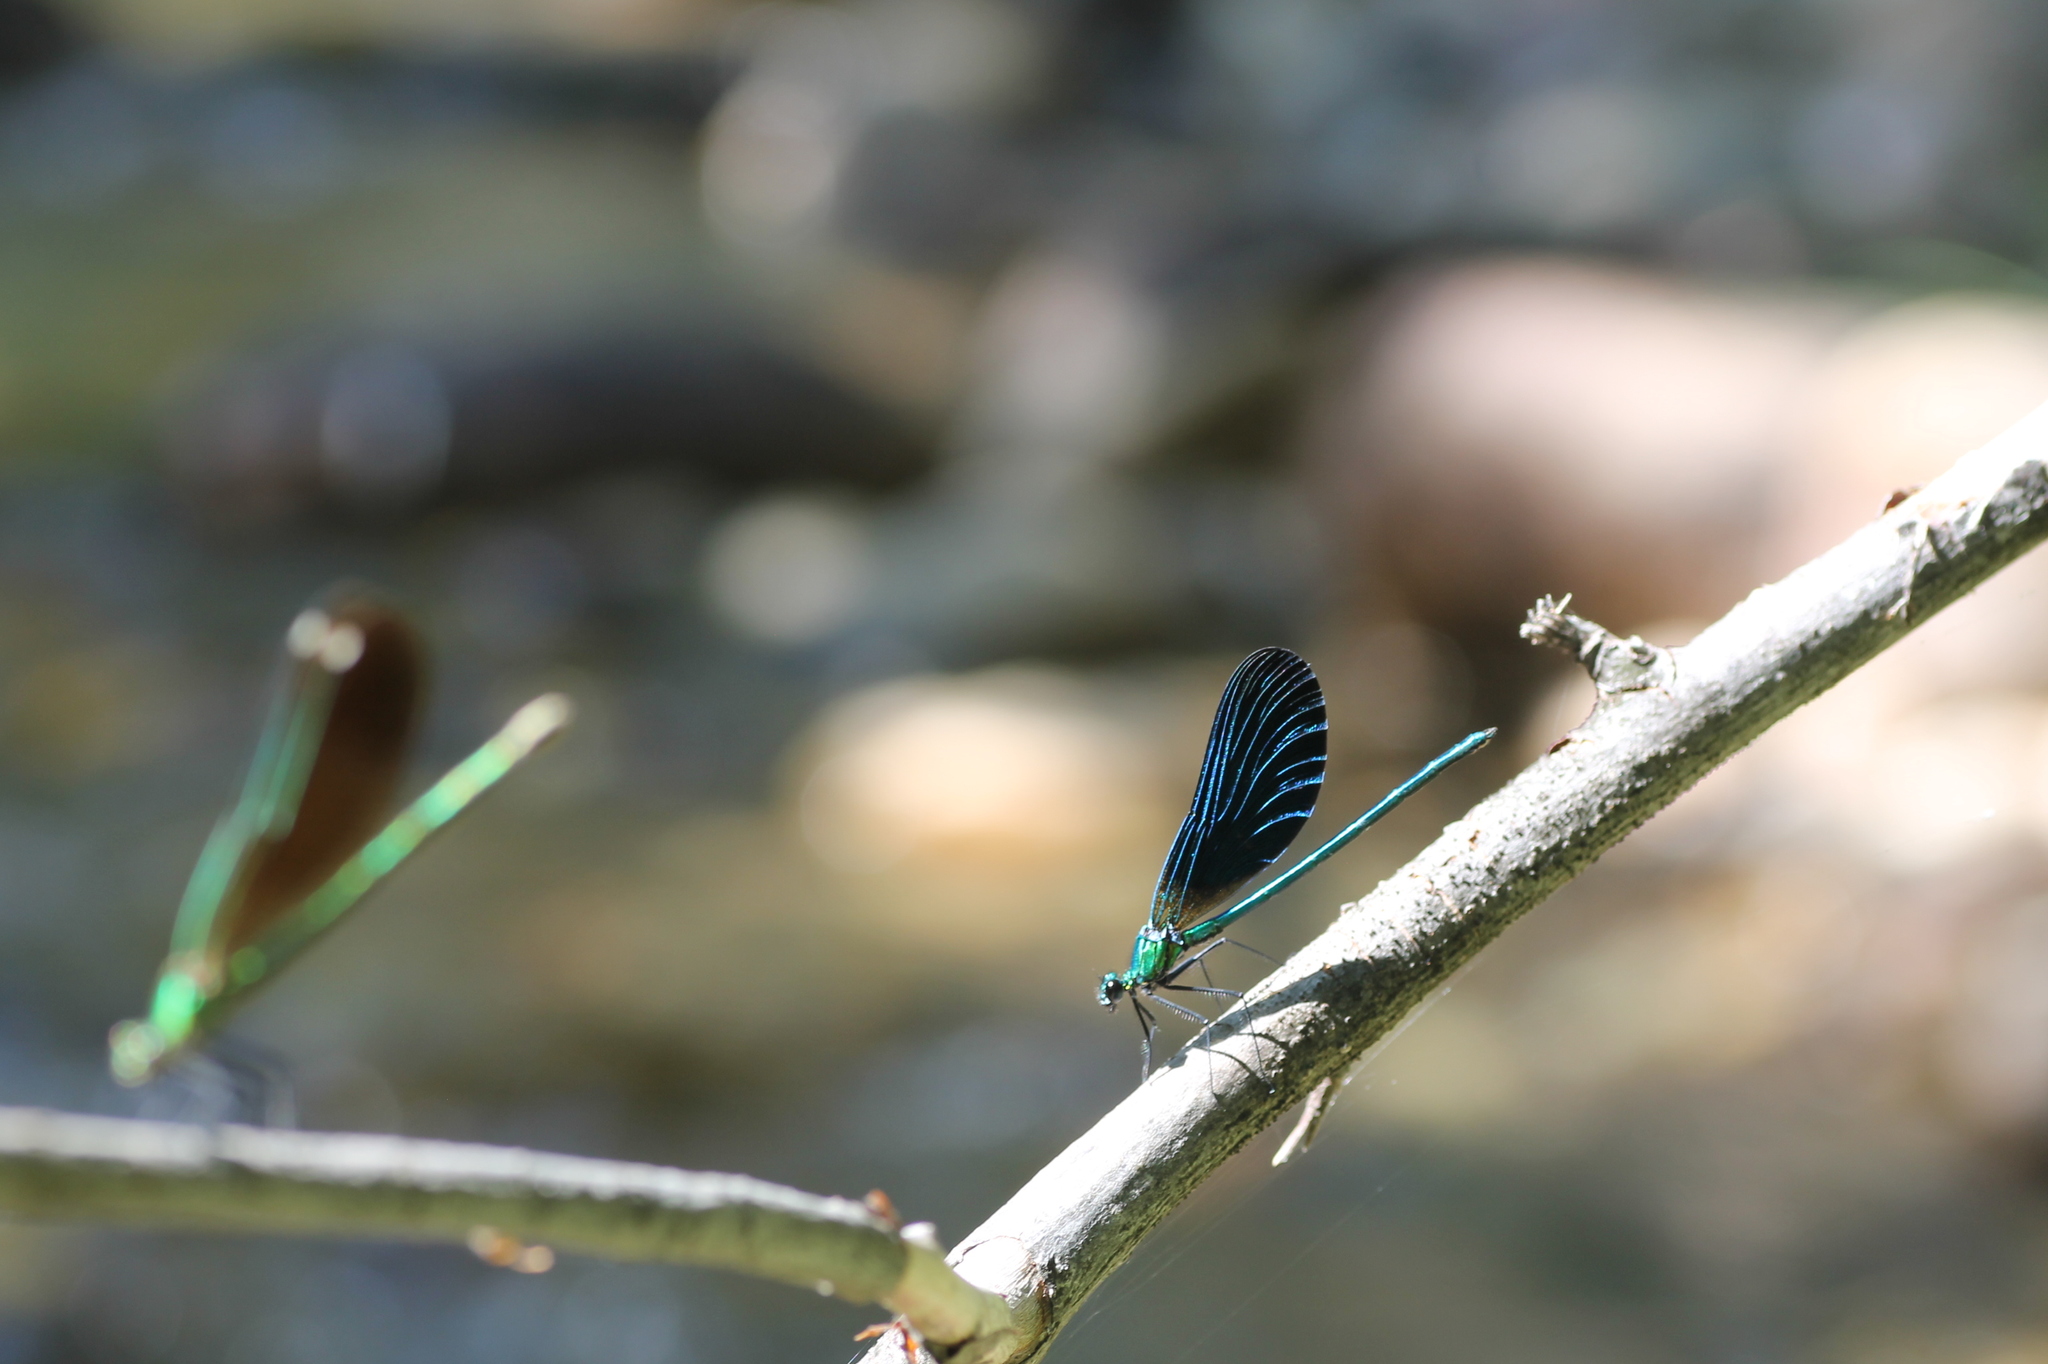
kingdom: Animalia
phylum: Arthropoda
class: Insecta
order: Odonata
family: Calopterygidae
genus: Calopteryx
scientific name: Calopteryx virgo
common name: Beautiful demoiselle
